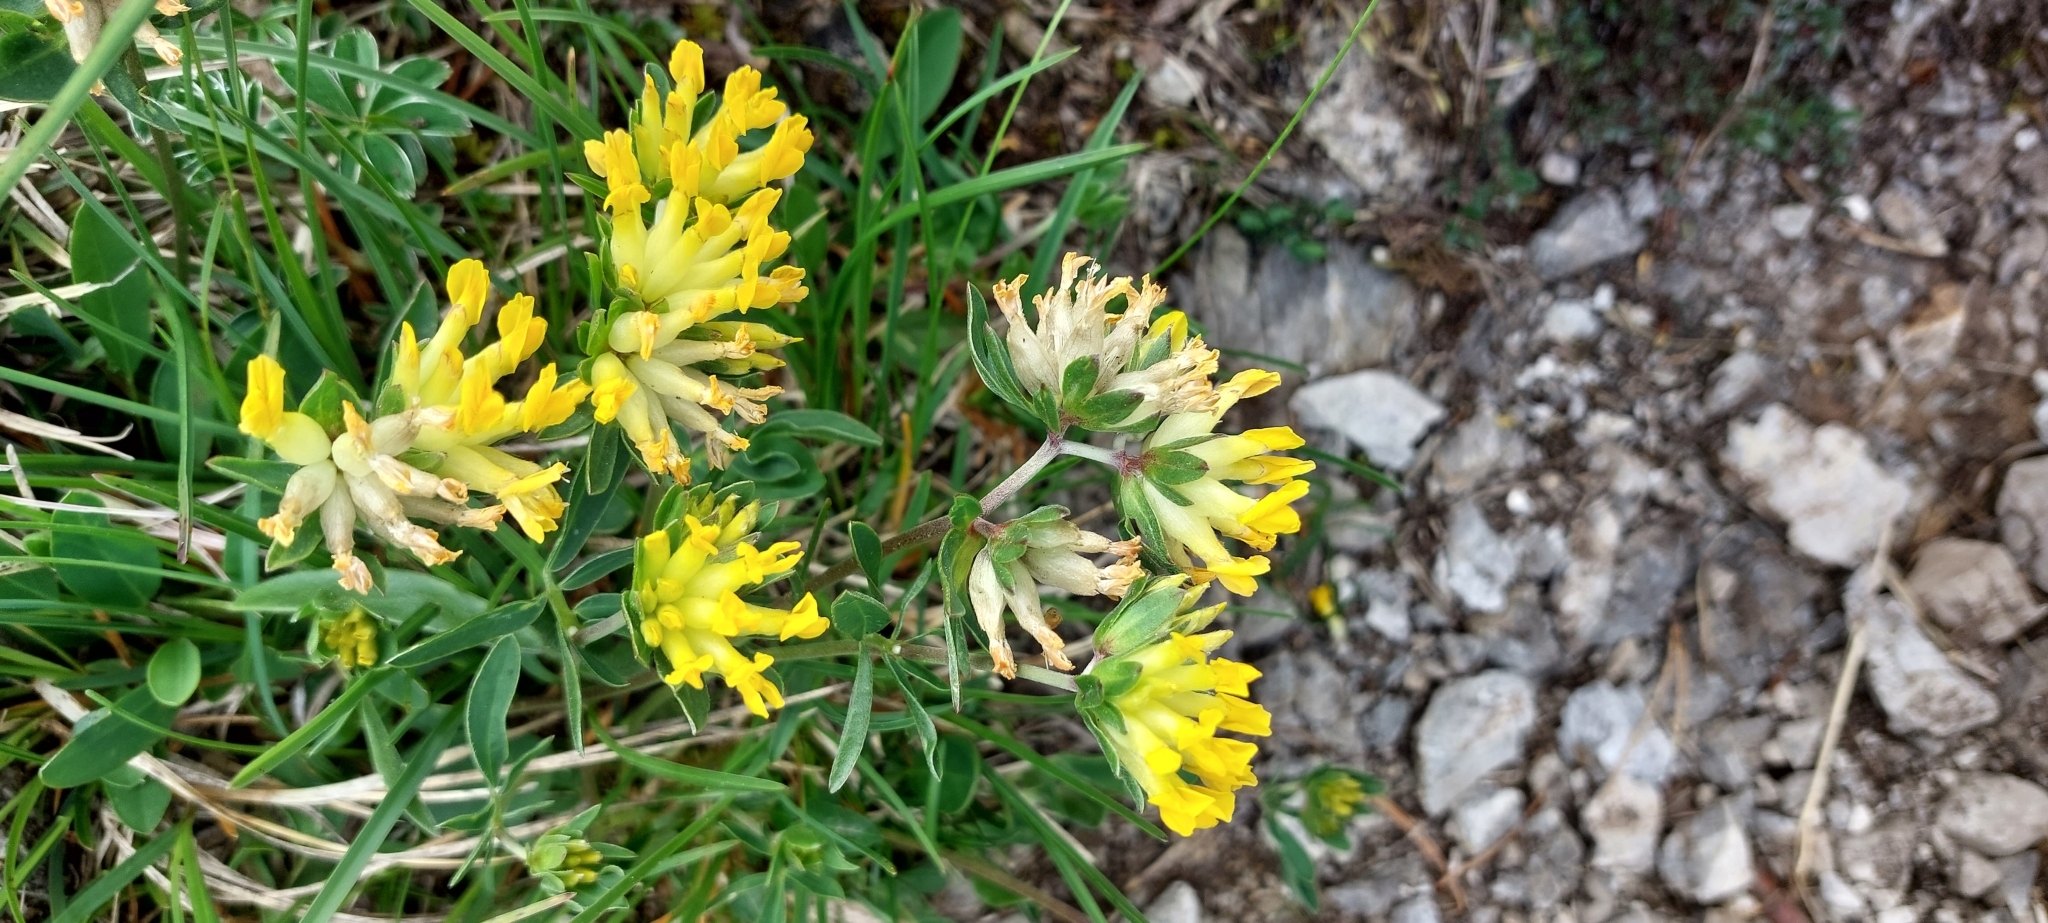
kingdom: Plantae
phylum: Tracheophyta
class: Magnoliopsida
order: Fabales
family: Fabaceae
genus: Anthyllis
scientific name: Anthyllis vulneraria
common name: Kidney vetch
